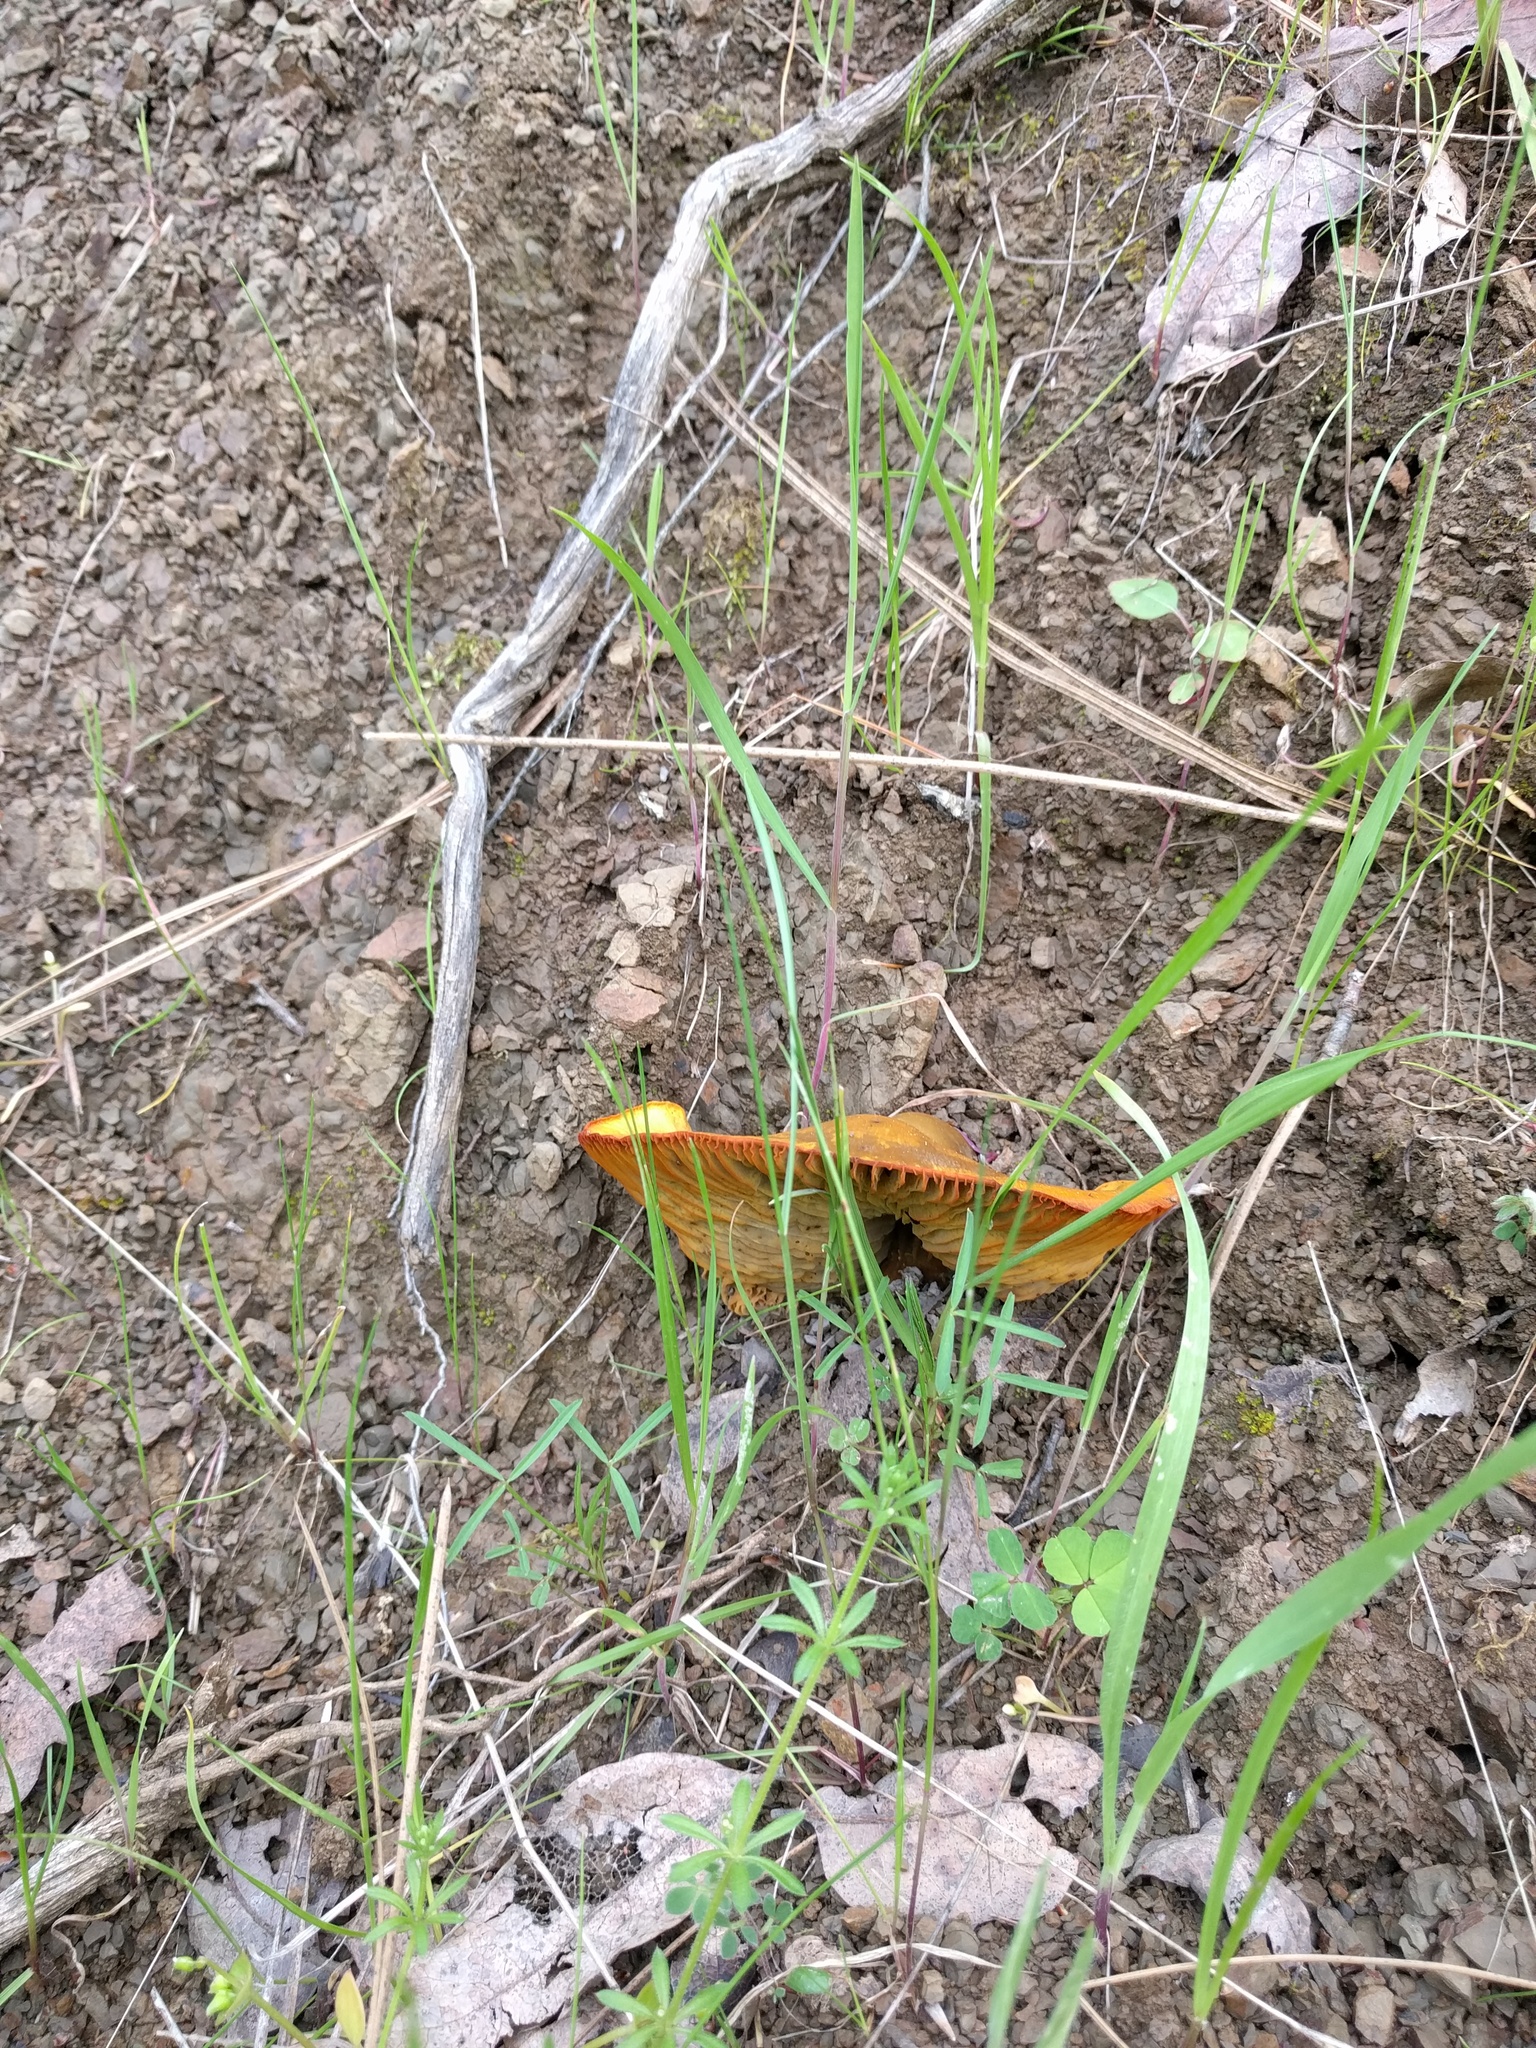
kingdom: Fungi
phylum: Basidiomycota
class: Agaricomycetes
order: Agaricales
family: Omphalotaceae
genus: Omphalotus
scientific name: Omphalotus olivascens
